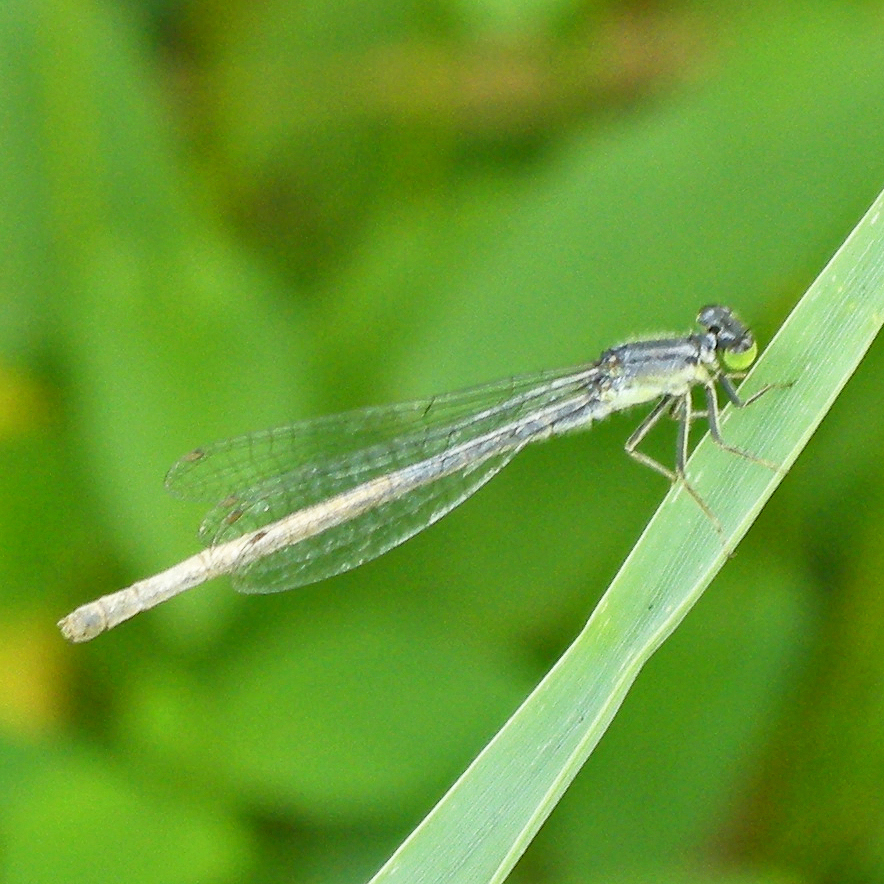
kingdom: Animalia
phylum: Arthropoda
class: Insecta
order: Odonata
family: Coenagrionidae
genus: Ischnura
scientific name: Ischnura verticalis
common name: Eastern forktail
